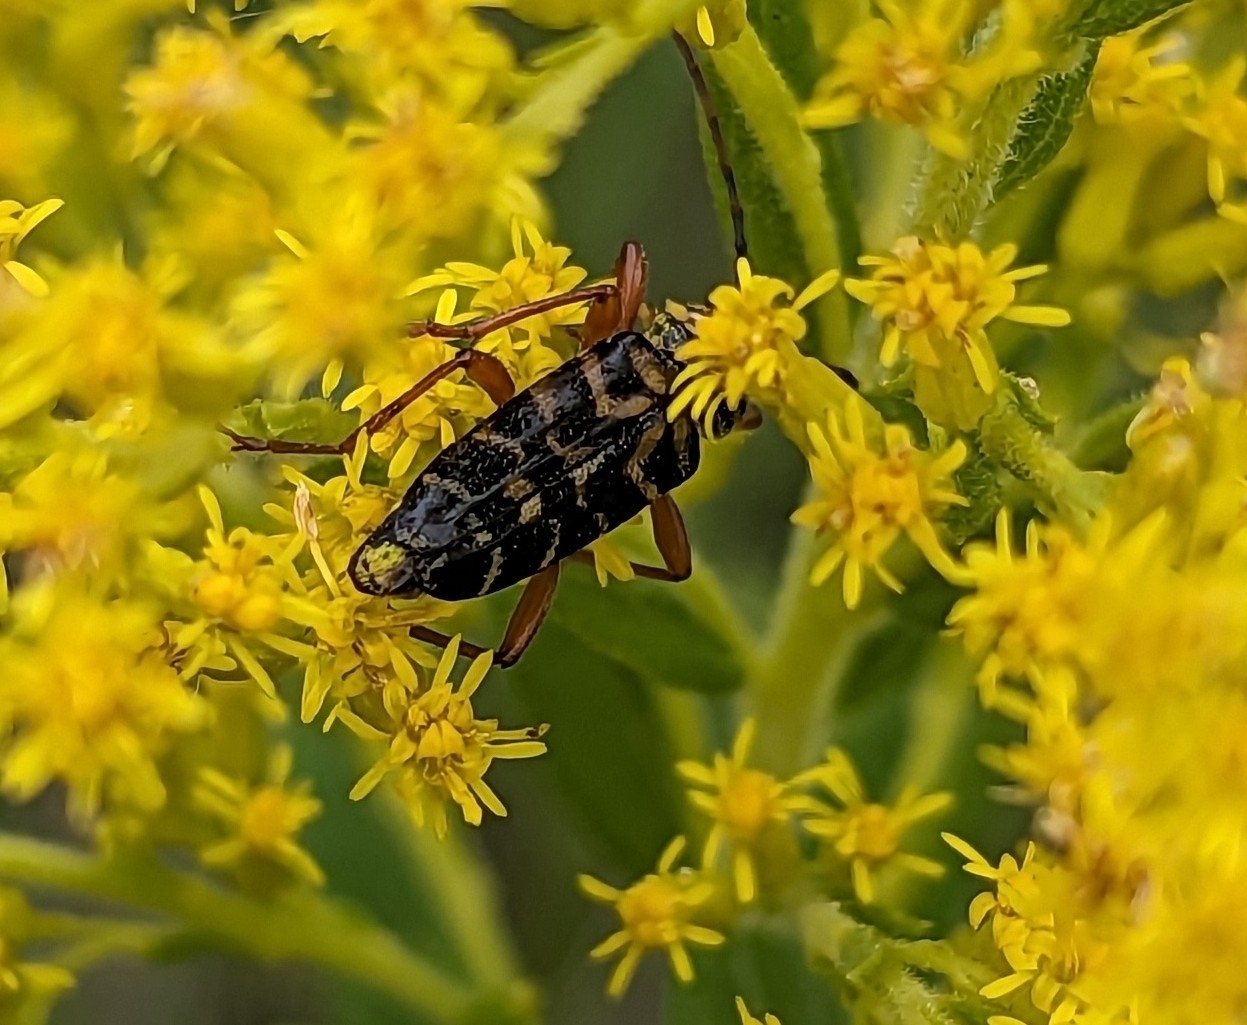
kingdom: Animalia
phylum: Arthropoda
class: Insecta
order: Coleoptera
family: Cerambycidae
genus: Megacyllene
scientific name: Megacyllene robiniae
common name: Locust borer
